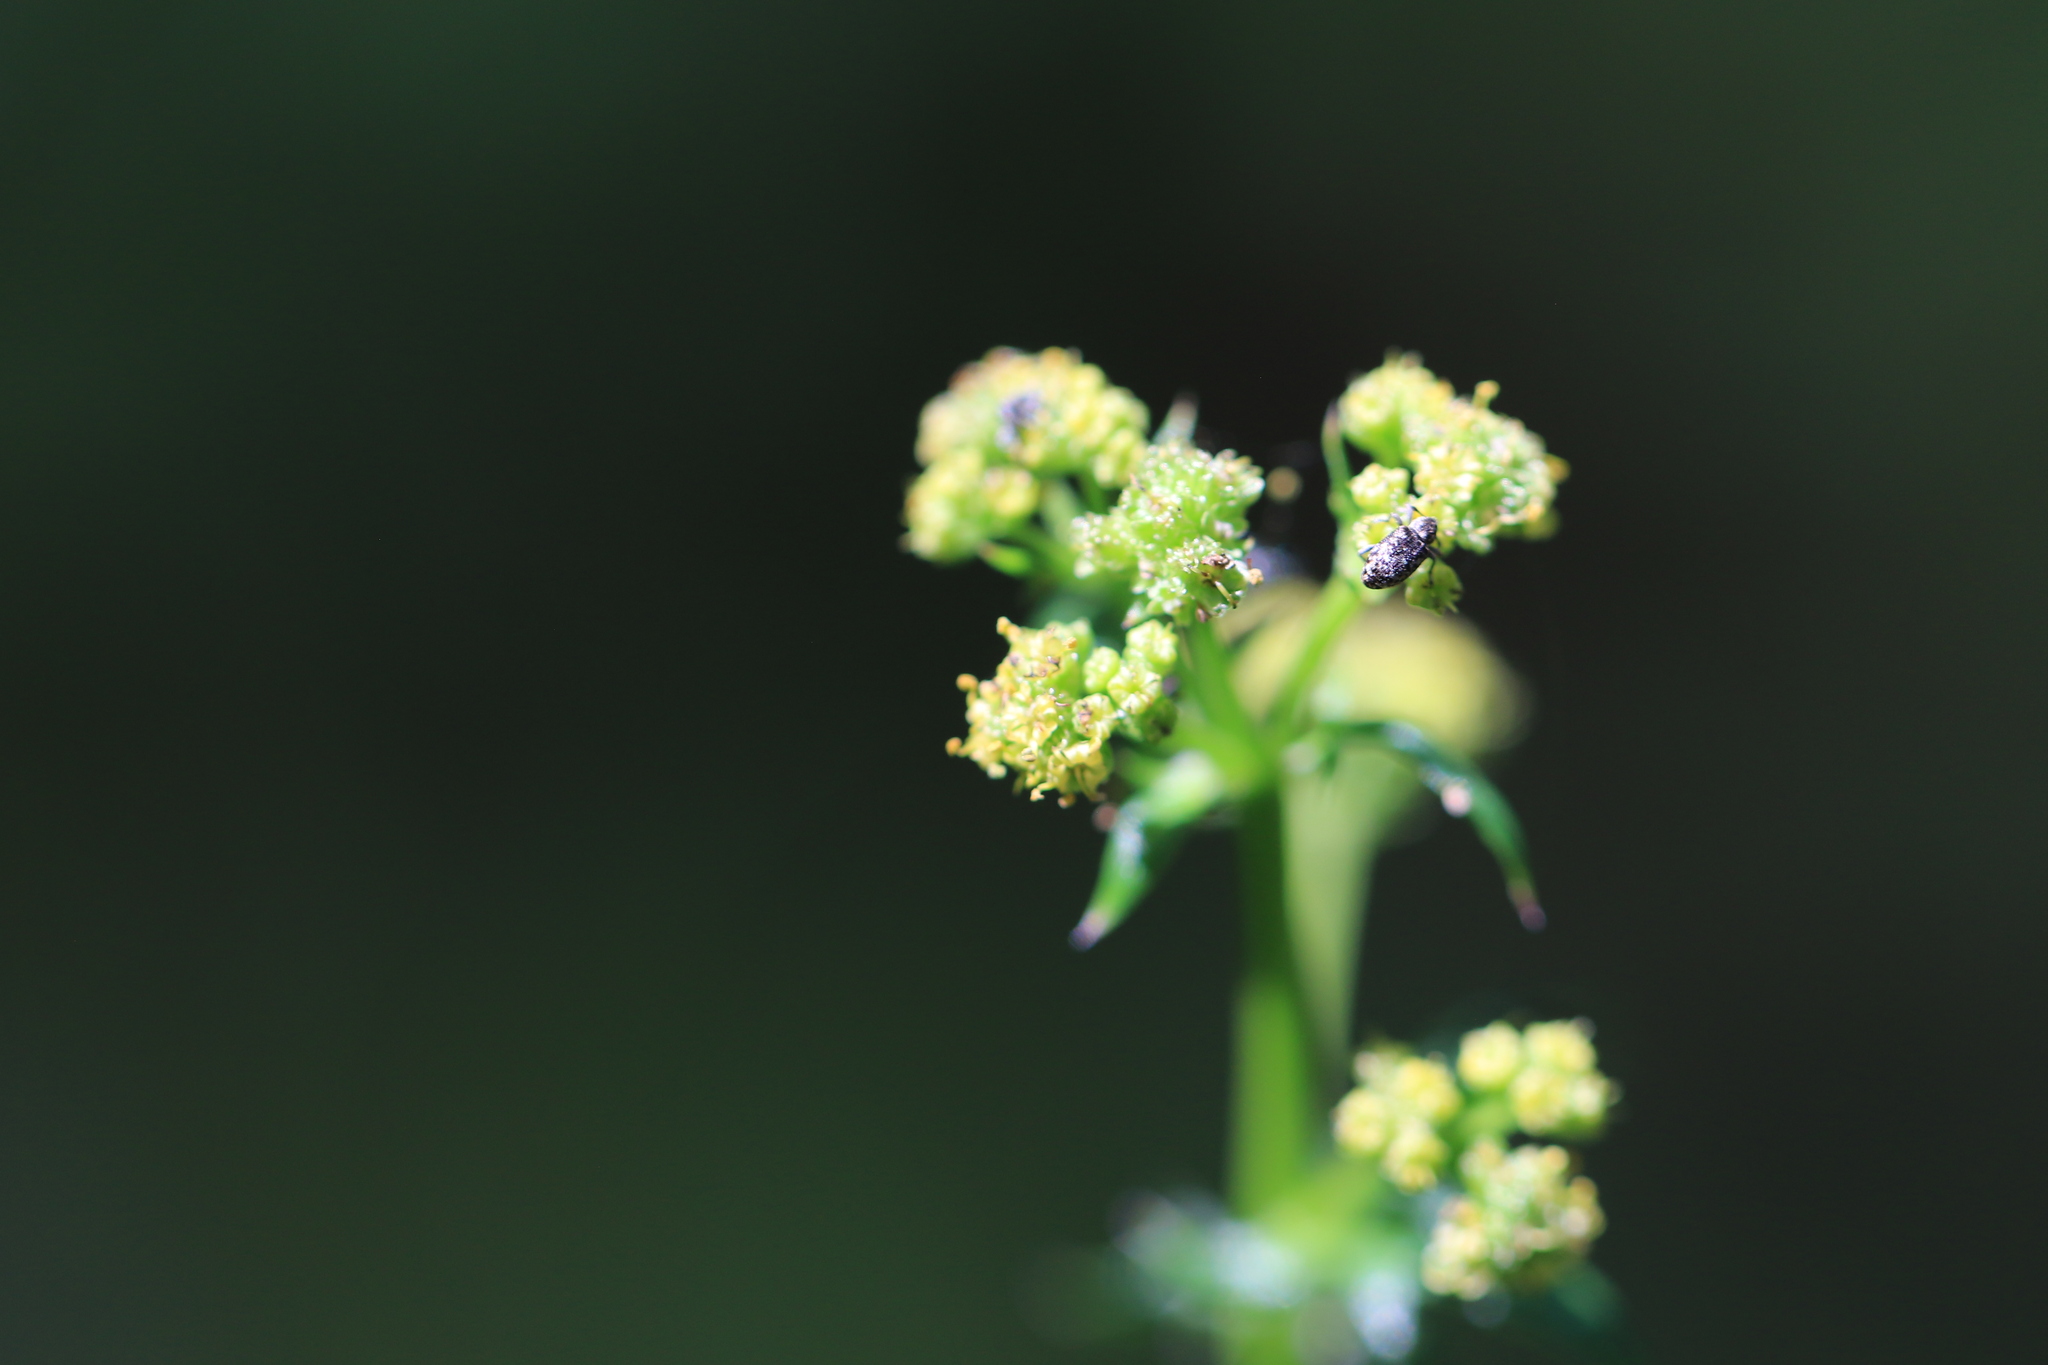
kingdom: Plantae
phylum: Tracheophyta
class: Magnoliopsida
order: Apiales
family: Apiaceae
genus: Sanicula
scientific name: Sanicula crassicaulis
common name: Western snakeroot
